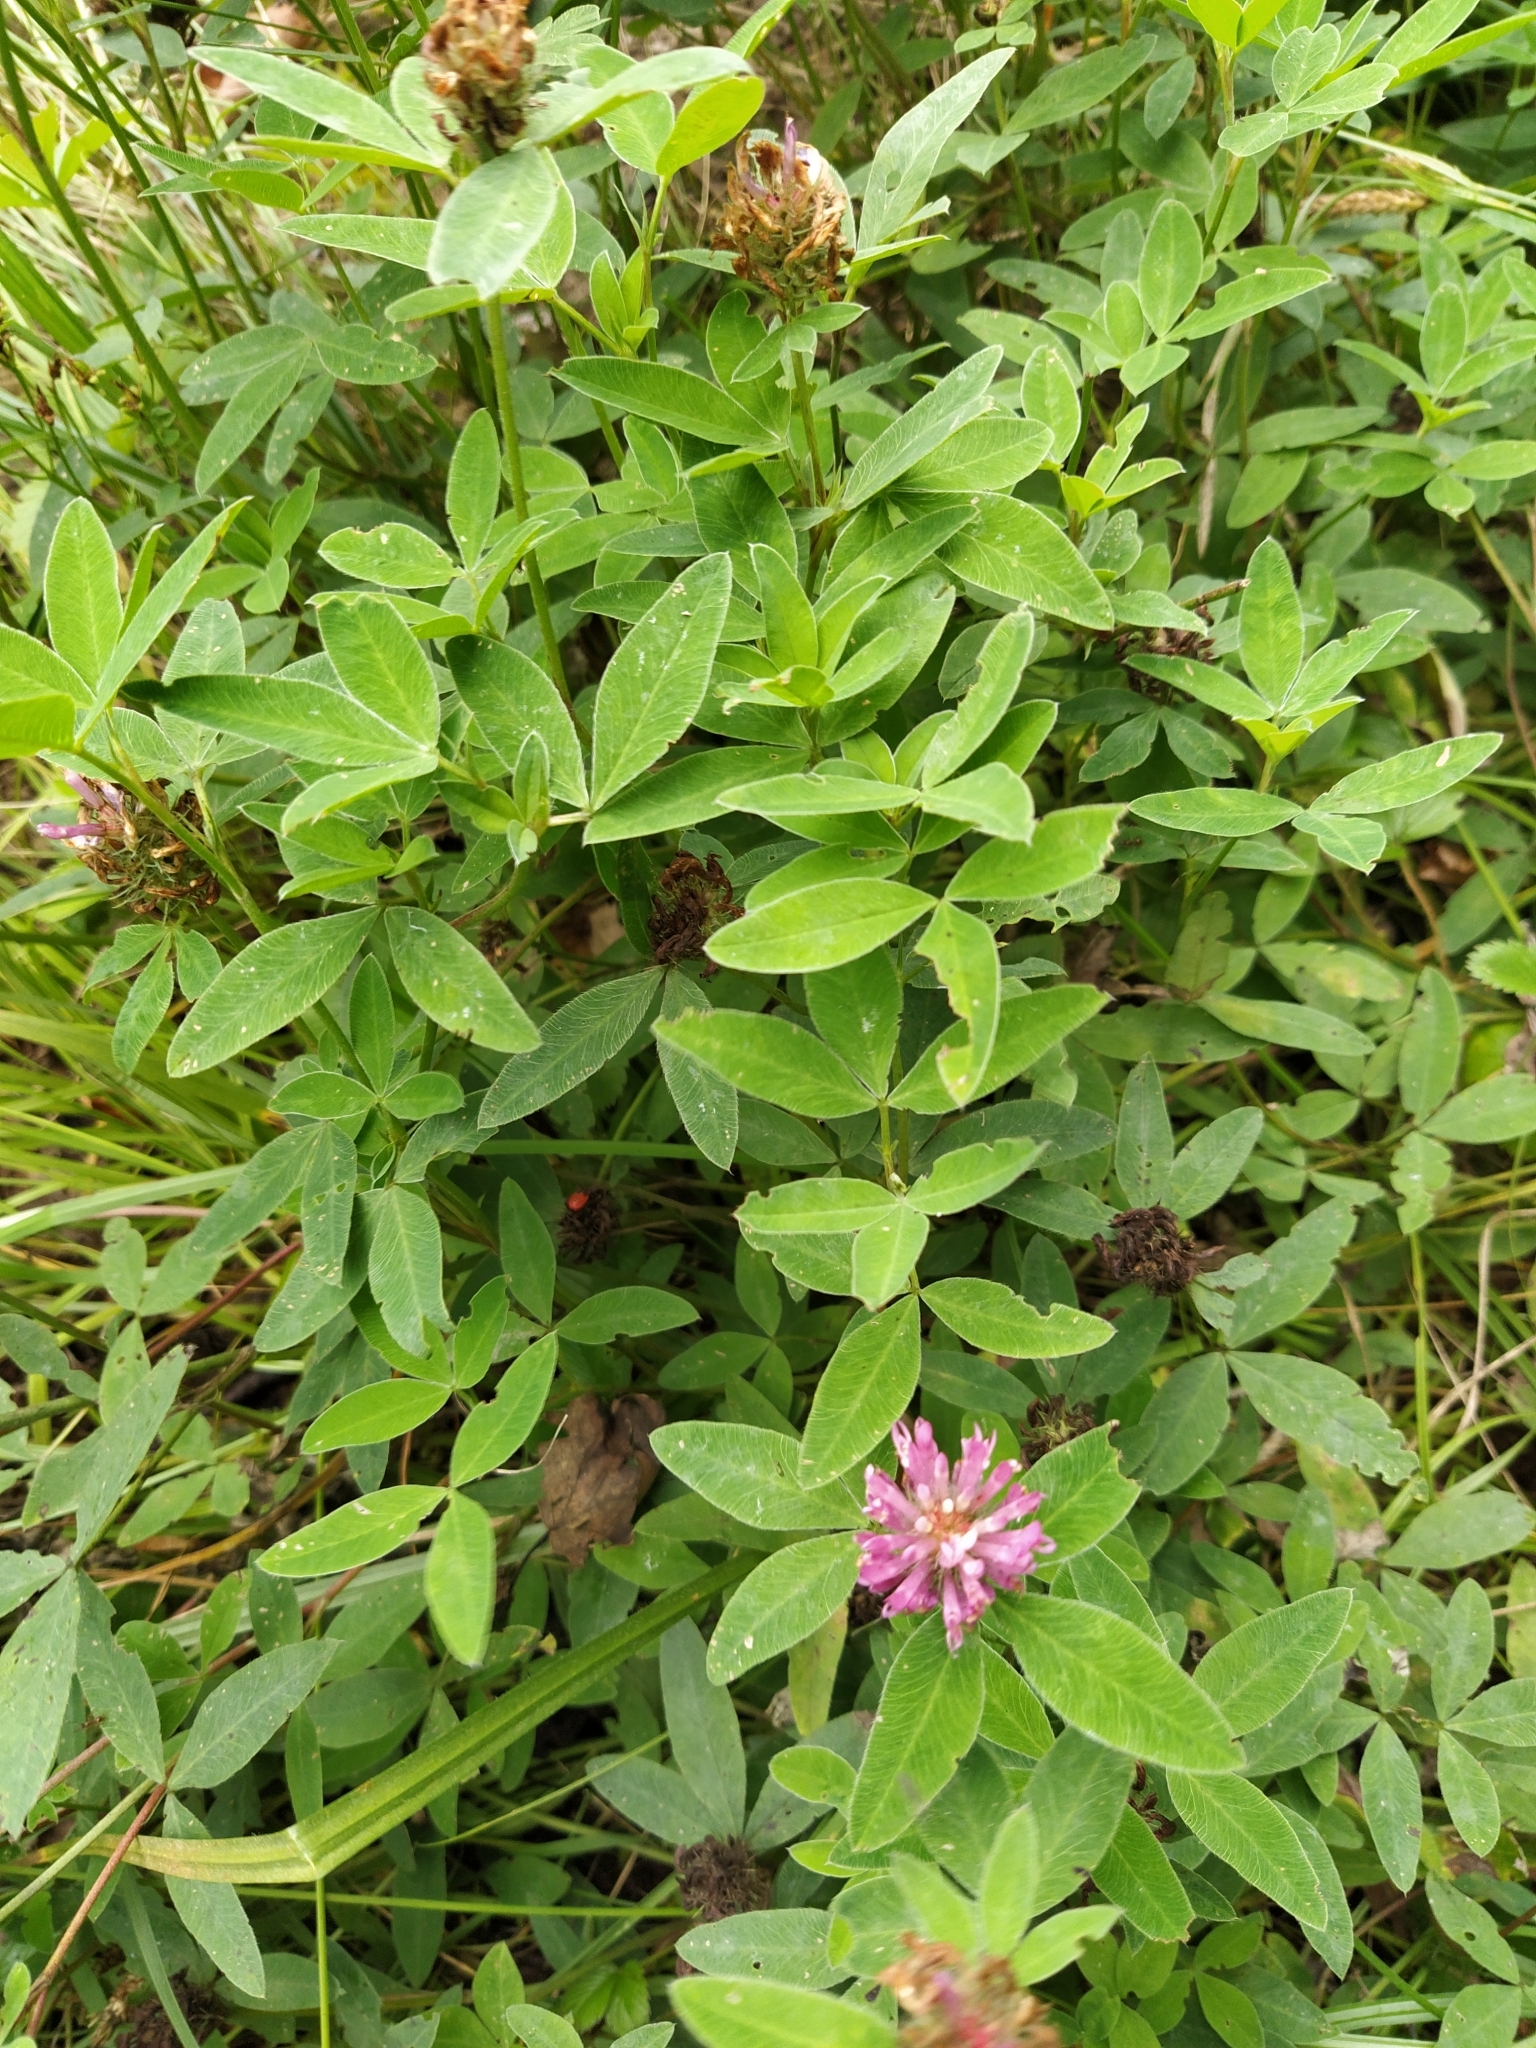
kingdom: Plantae
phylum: Tracheophyta
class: Magnoliopsida
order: Fabales
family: Fabaceae
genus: Trifolium
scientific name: Trifolium medium
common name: Zigzag clover
